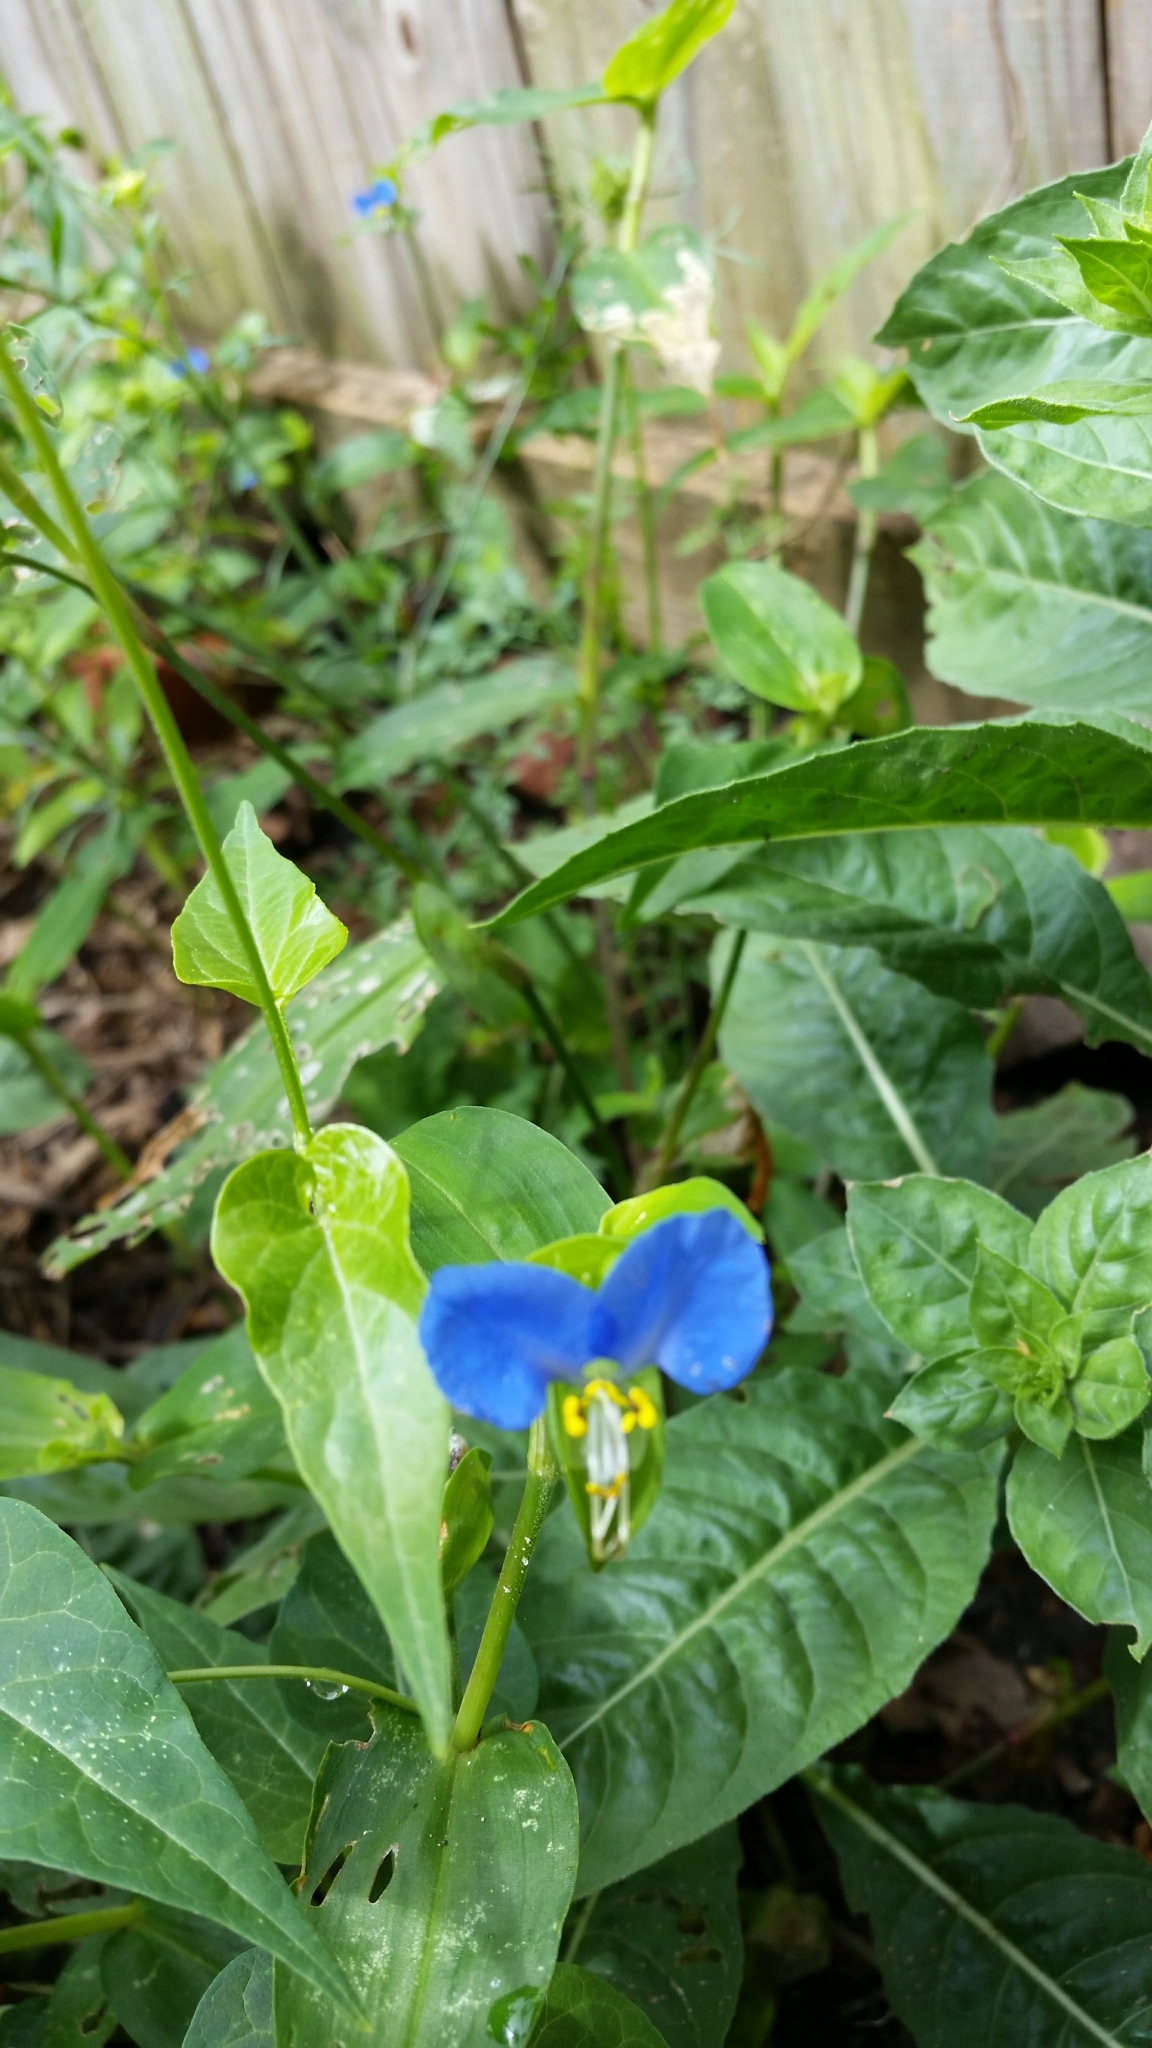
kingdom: Plantae
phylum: Tracheophyta
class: Liliopsida
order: Commelinales
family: Commelinaceae
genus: Commelina
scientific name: Commelina communis
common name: Asiatic dayflower
